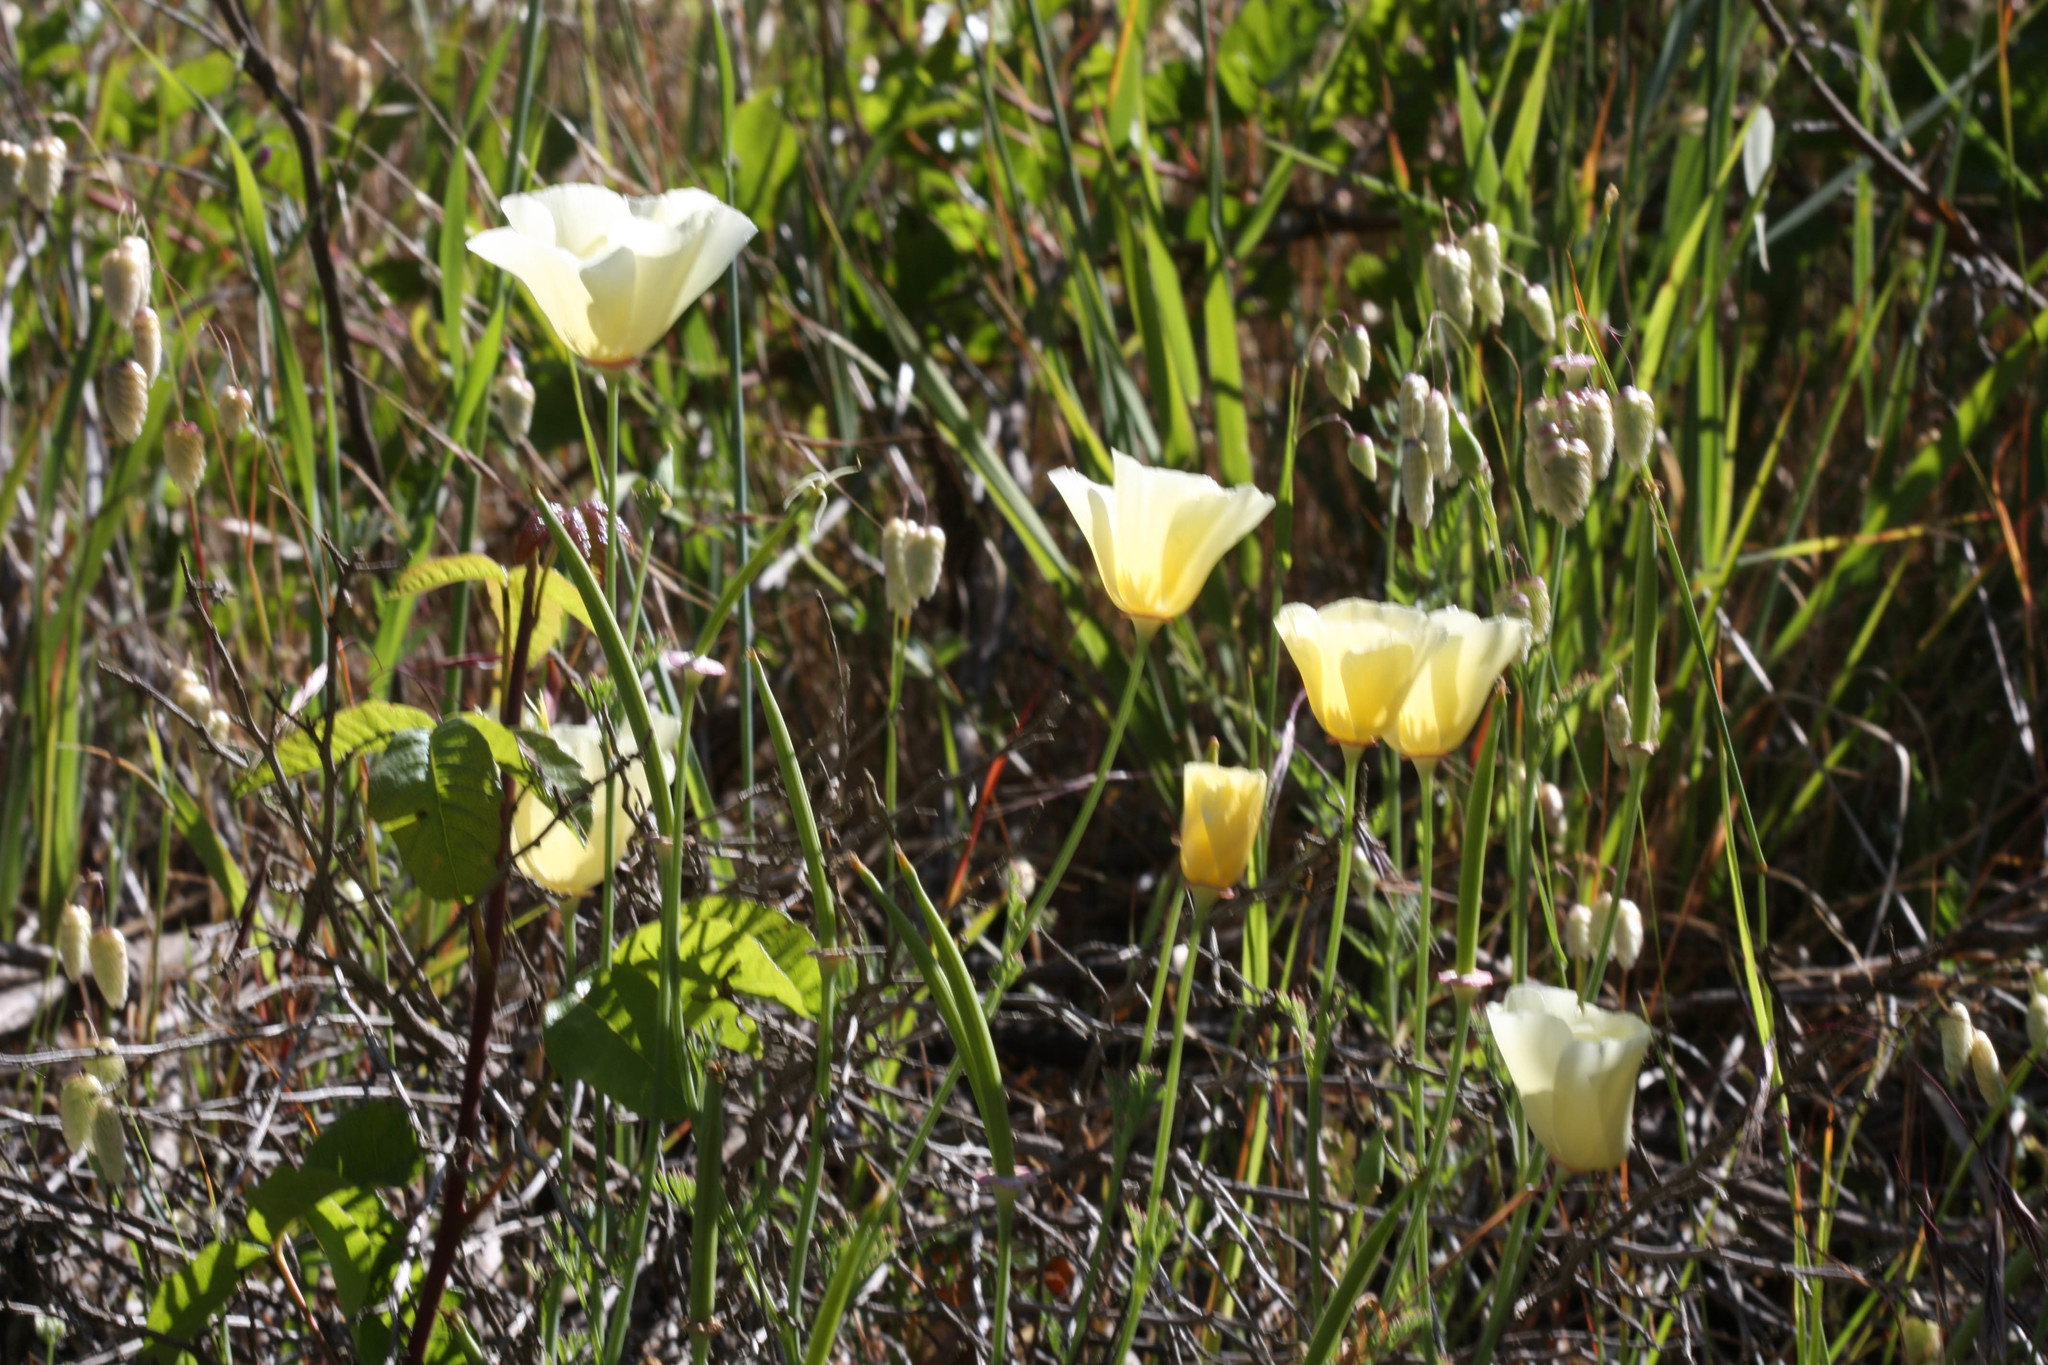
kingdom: Plantae
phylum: Tracheophyta
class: Magnoliopsida
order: Ranunculales
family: Papaveraceae
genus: Eschscholzia
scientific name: Eschscholzia californica
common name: California poppy
